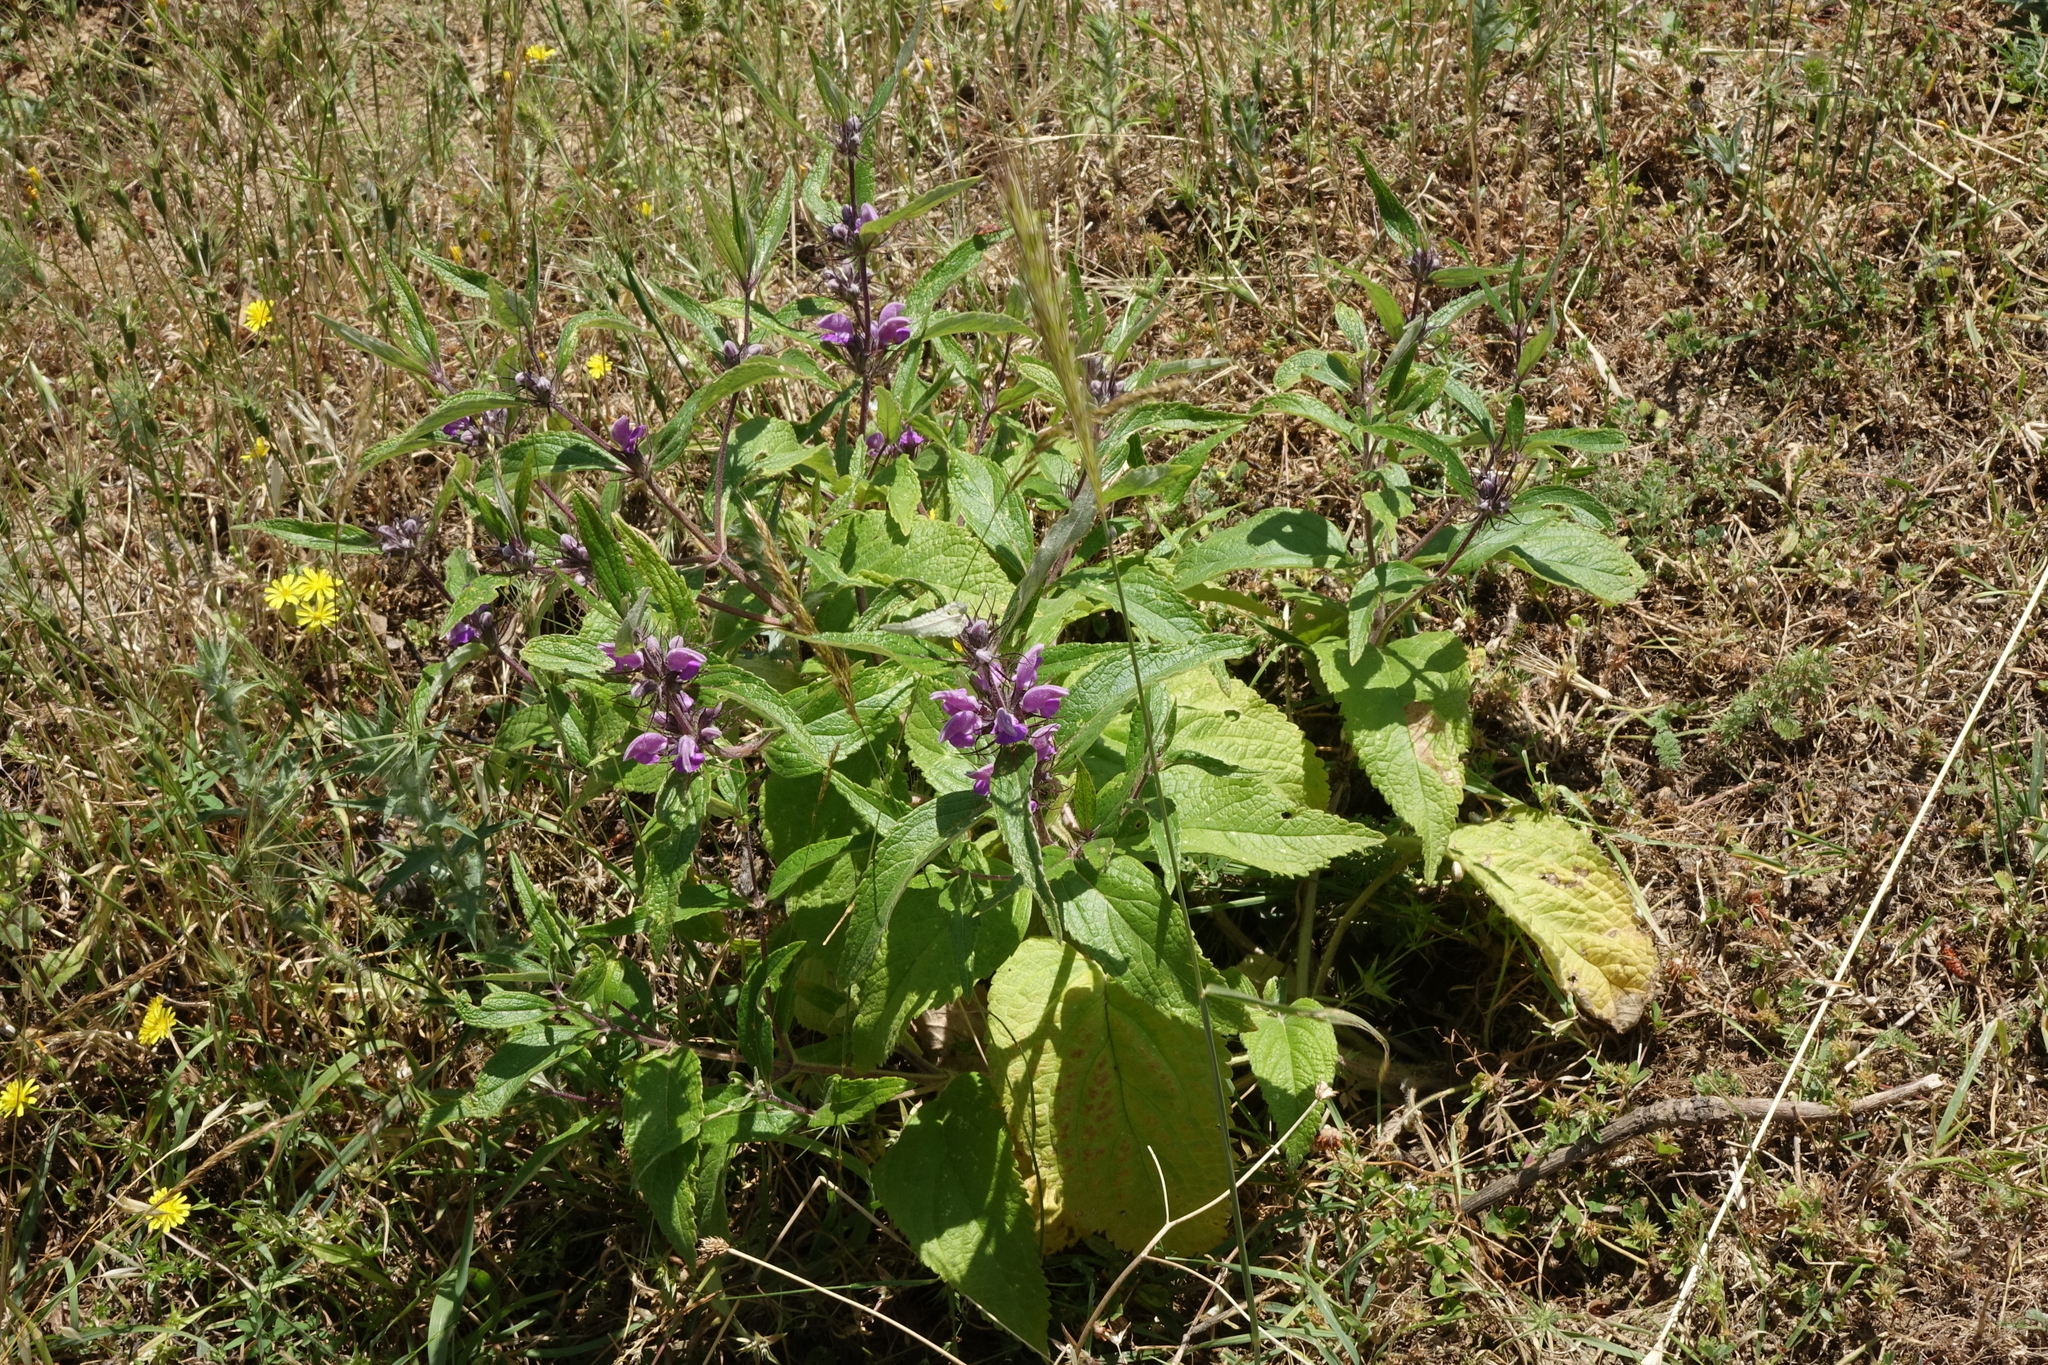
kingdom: Plantae
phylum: Tracheophyta
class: Magnoliopsida
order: Lamiales
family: Lamiaceae
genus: Phlomis
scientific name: Phlomis herba-venti
